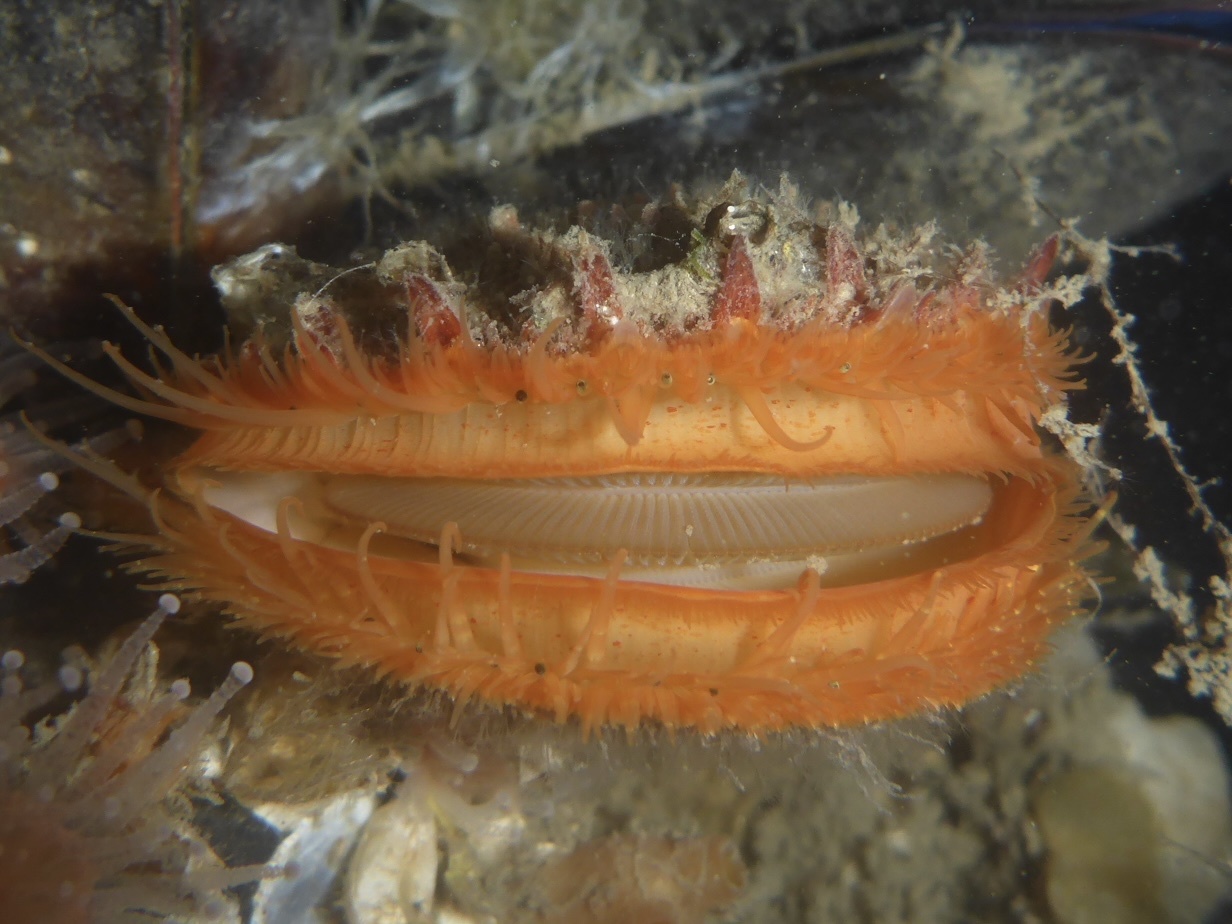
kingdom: Animalia
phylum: Mollusca
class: Bivalvia
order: Pectinida
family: Pectinidae
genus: Crassadoma
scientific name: Crassadoma gigantea
